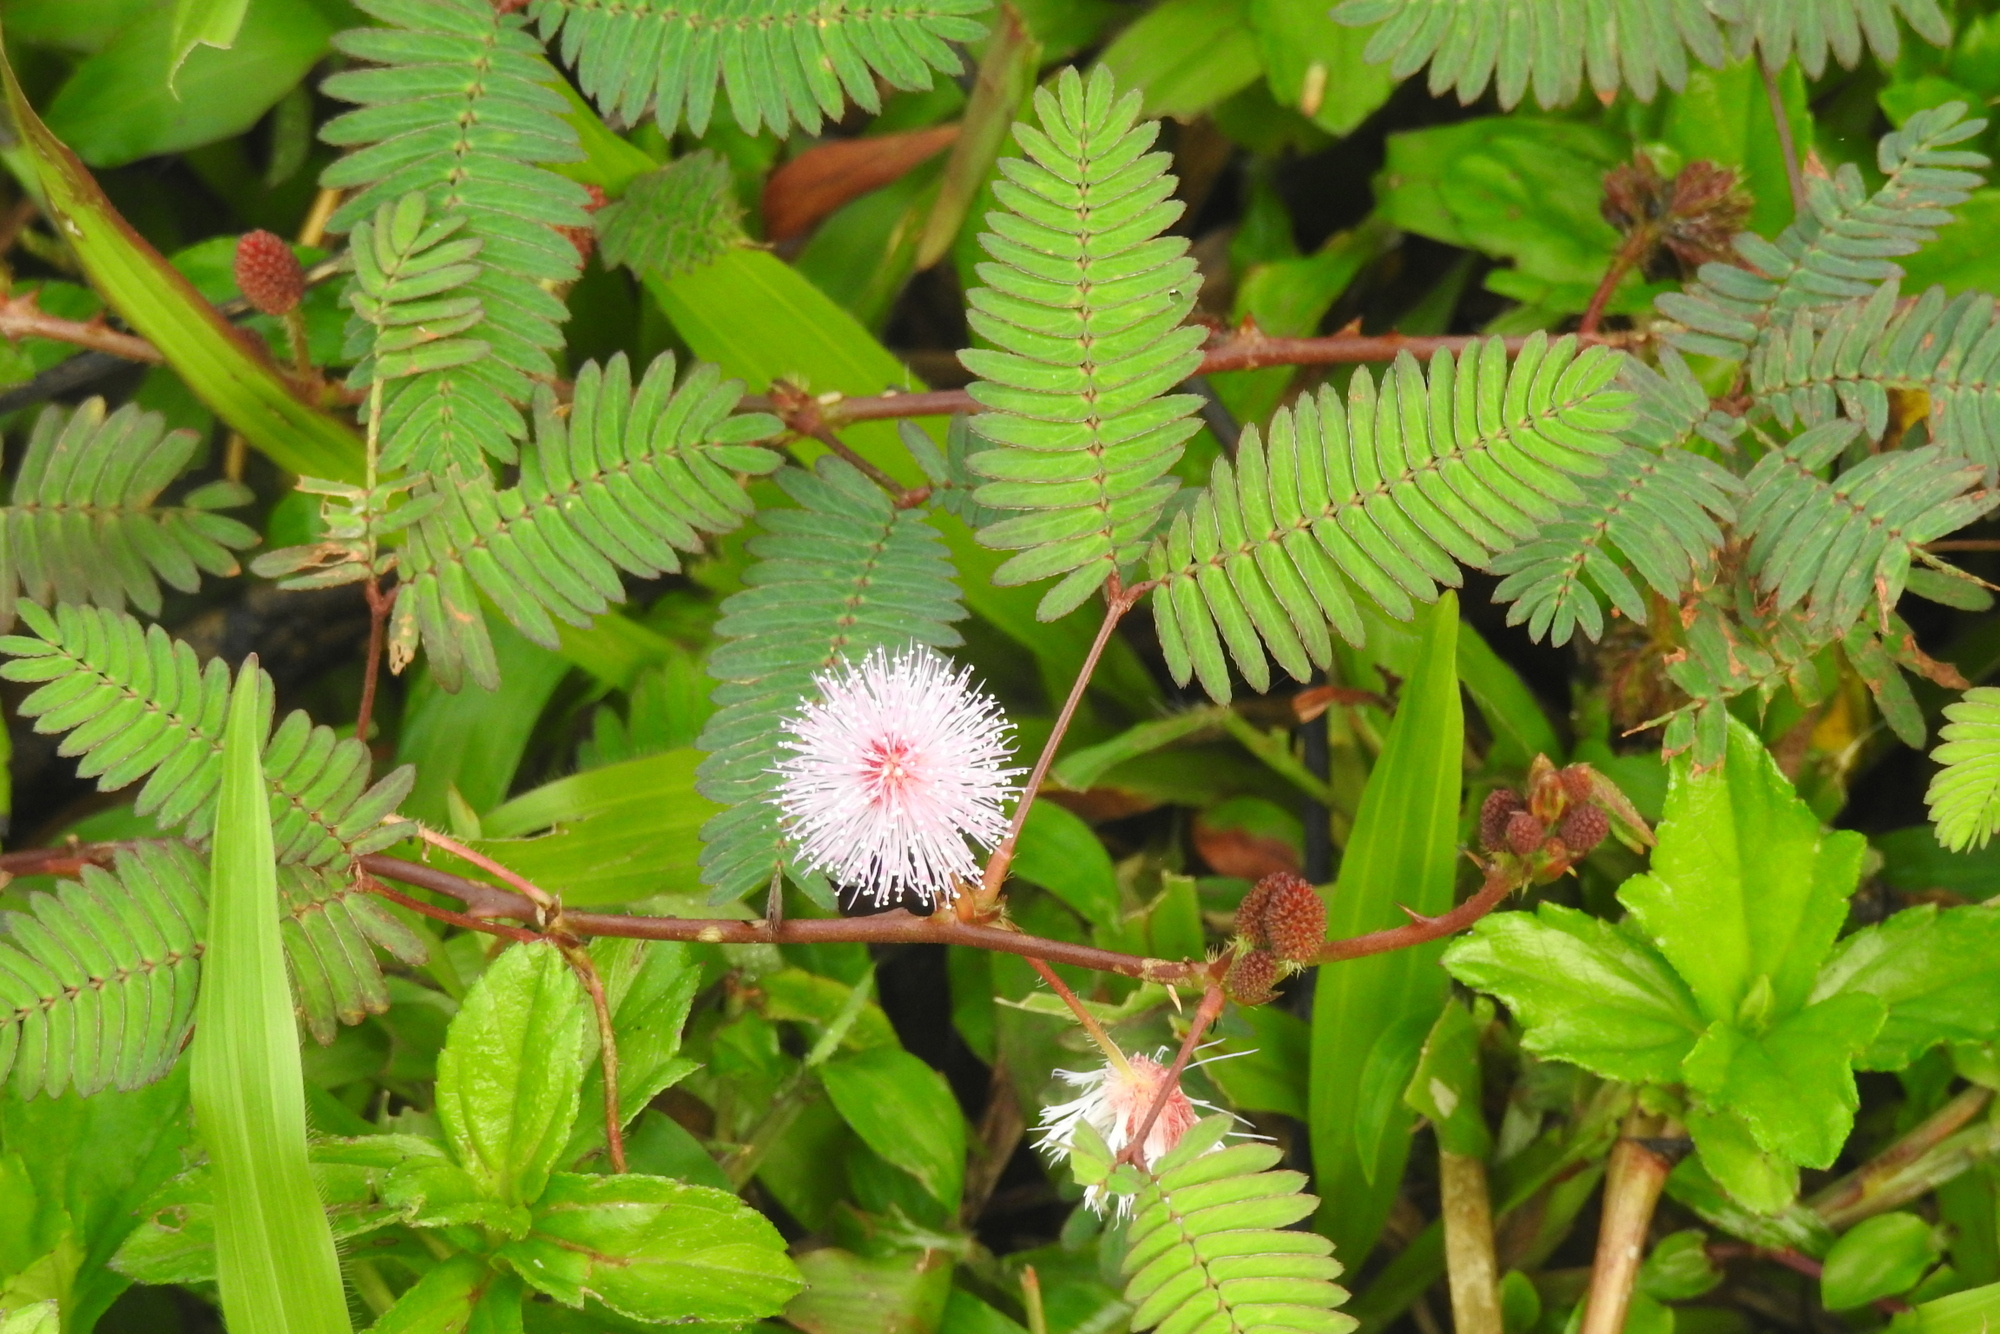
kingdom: Plantae
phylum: Tracheophyta
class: Magnoliopsida
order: Fabales
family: Fabaceae
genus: Mimosa
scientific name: Mimosa pudica
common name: Sensitive plant
